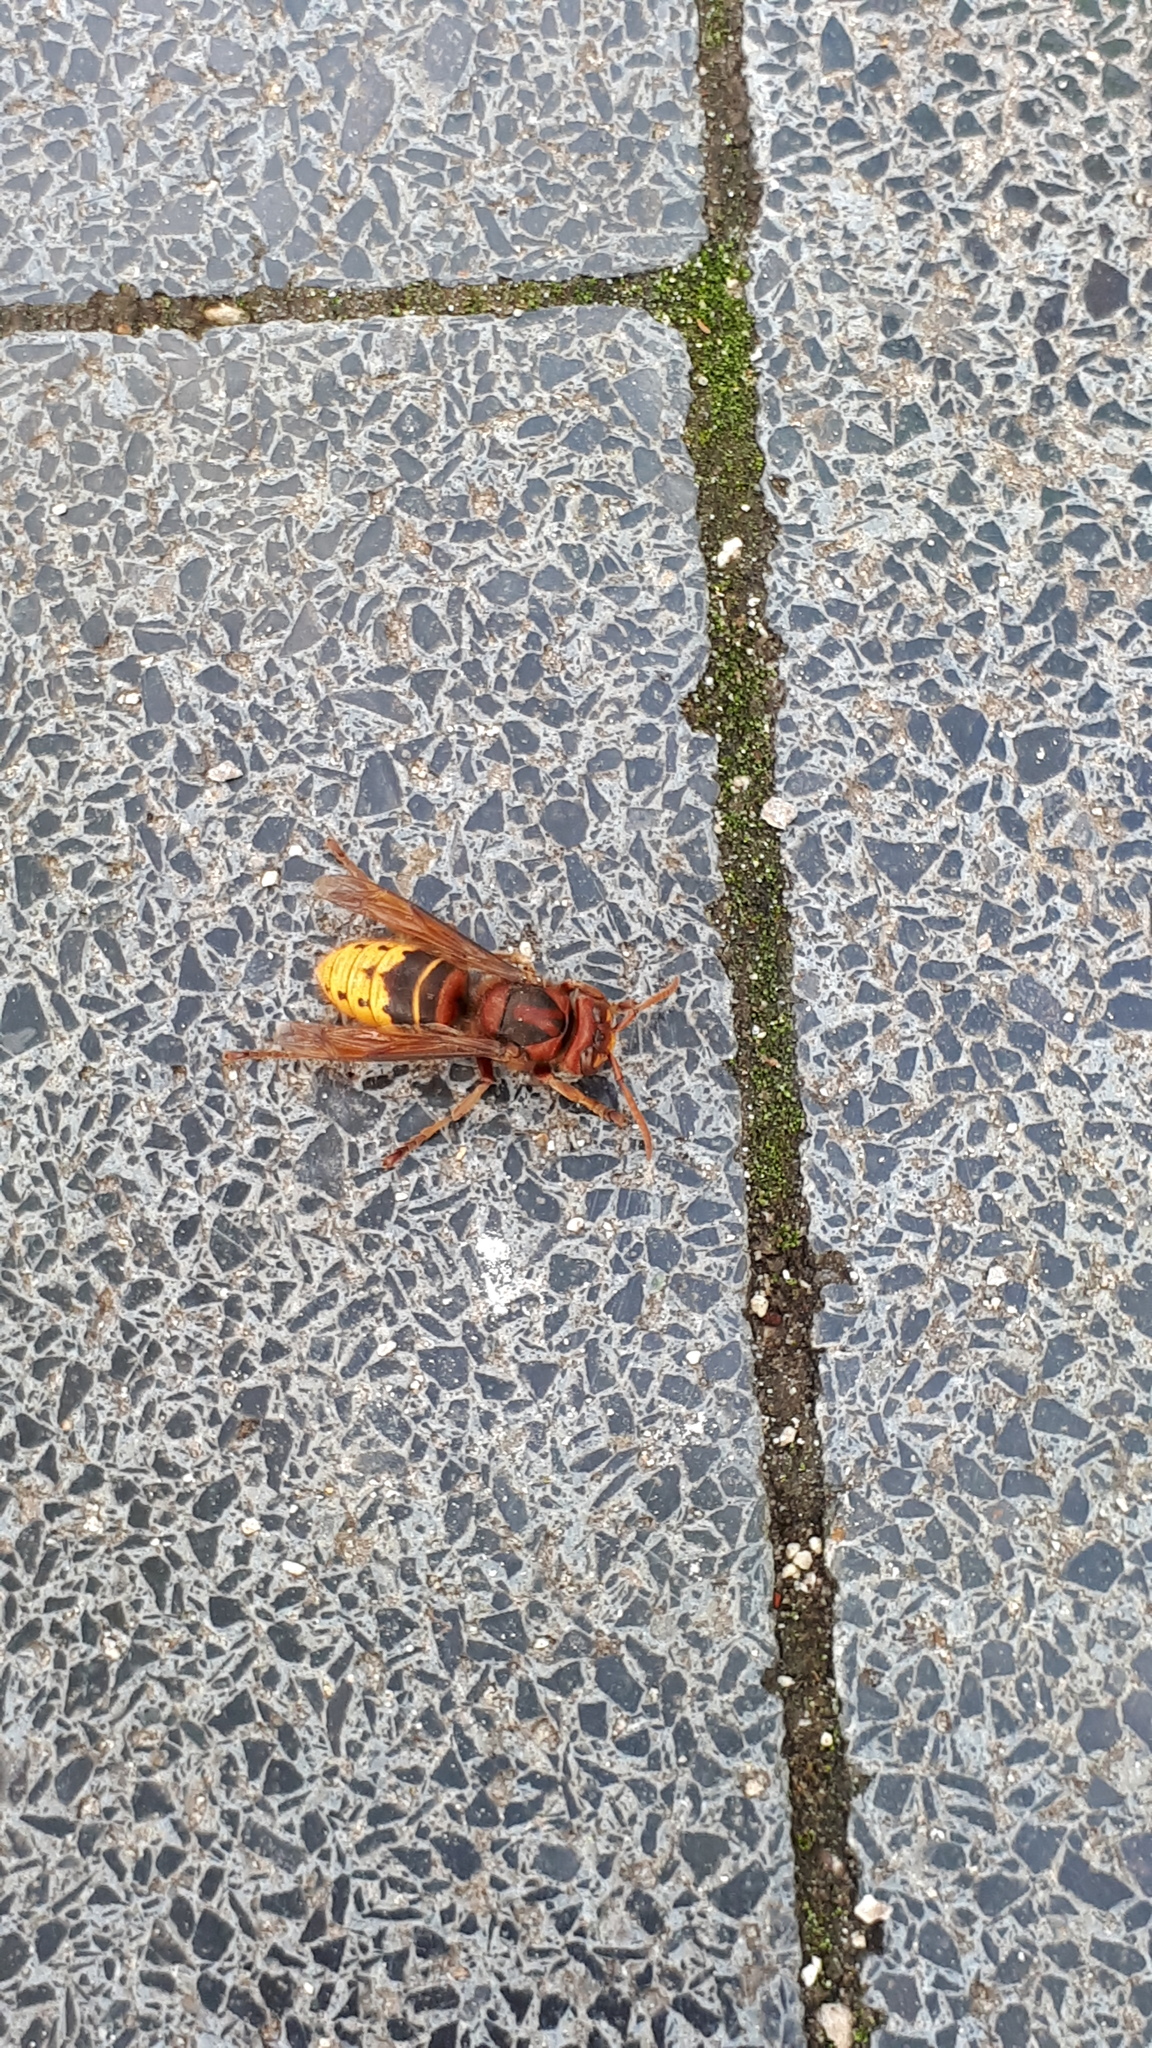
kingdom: Animalia
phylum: Arthropoda
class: Insecta
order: Hymenoptera
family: Vespidae
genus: Vespa
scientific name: Vespa crabro
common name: Hornet
